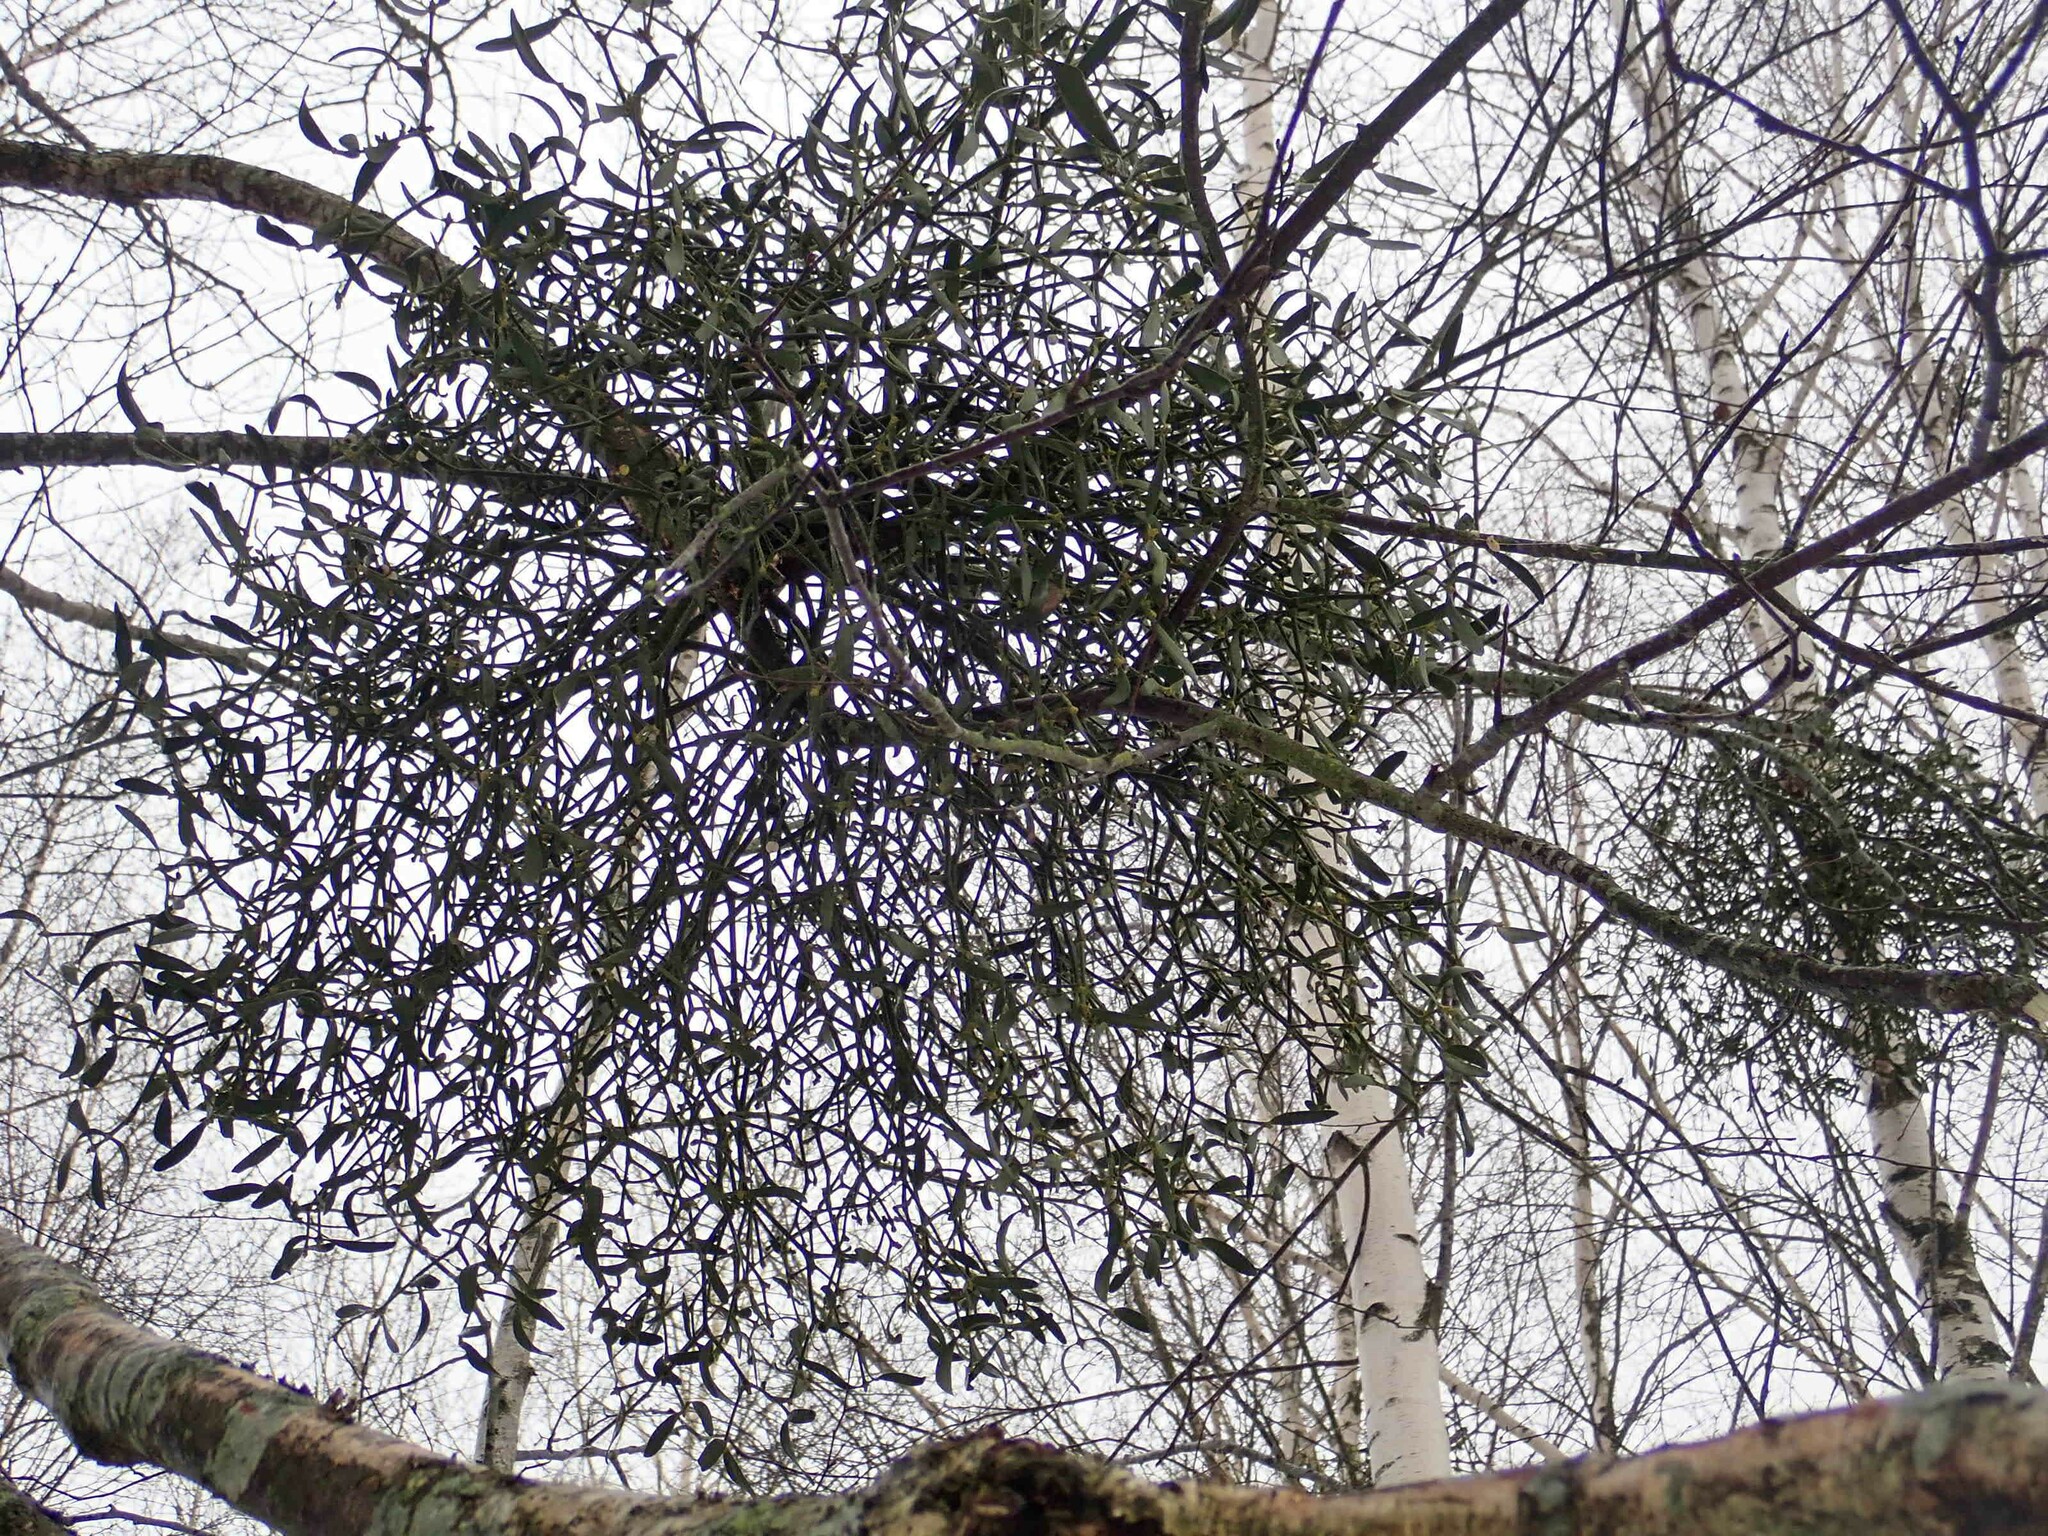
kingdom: Plantae
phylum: Tracheophyta
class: Magnoliopsida
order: Santalales
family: Viscaceae
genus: Viscum
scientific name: Viscum album
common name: Mistletoe
